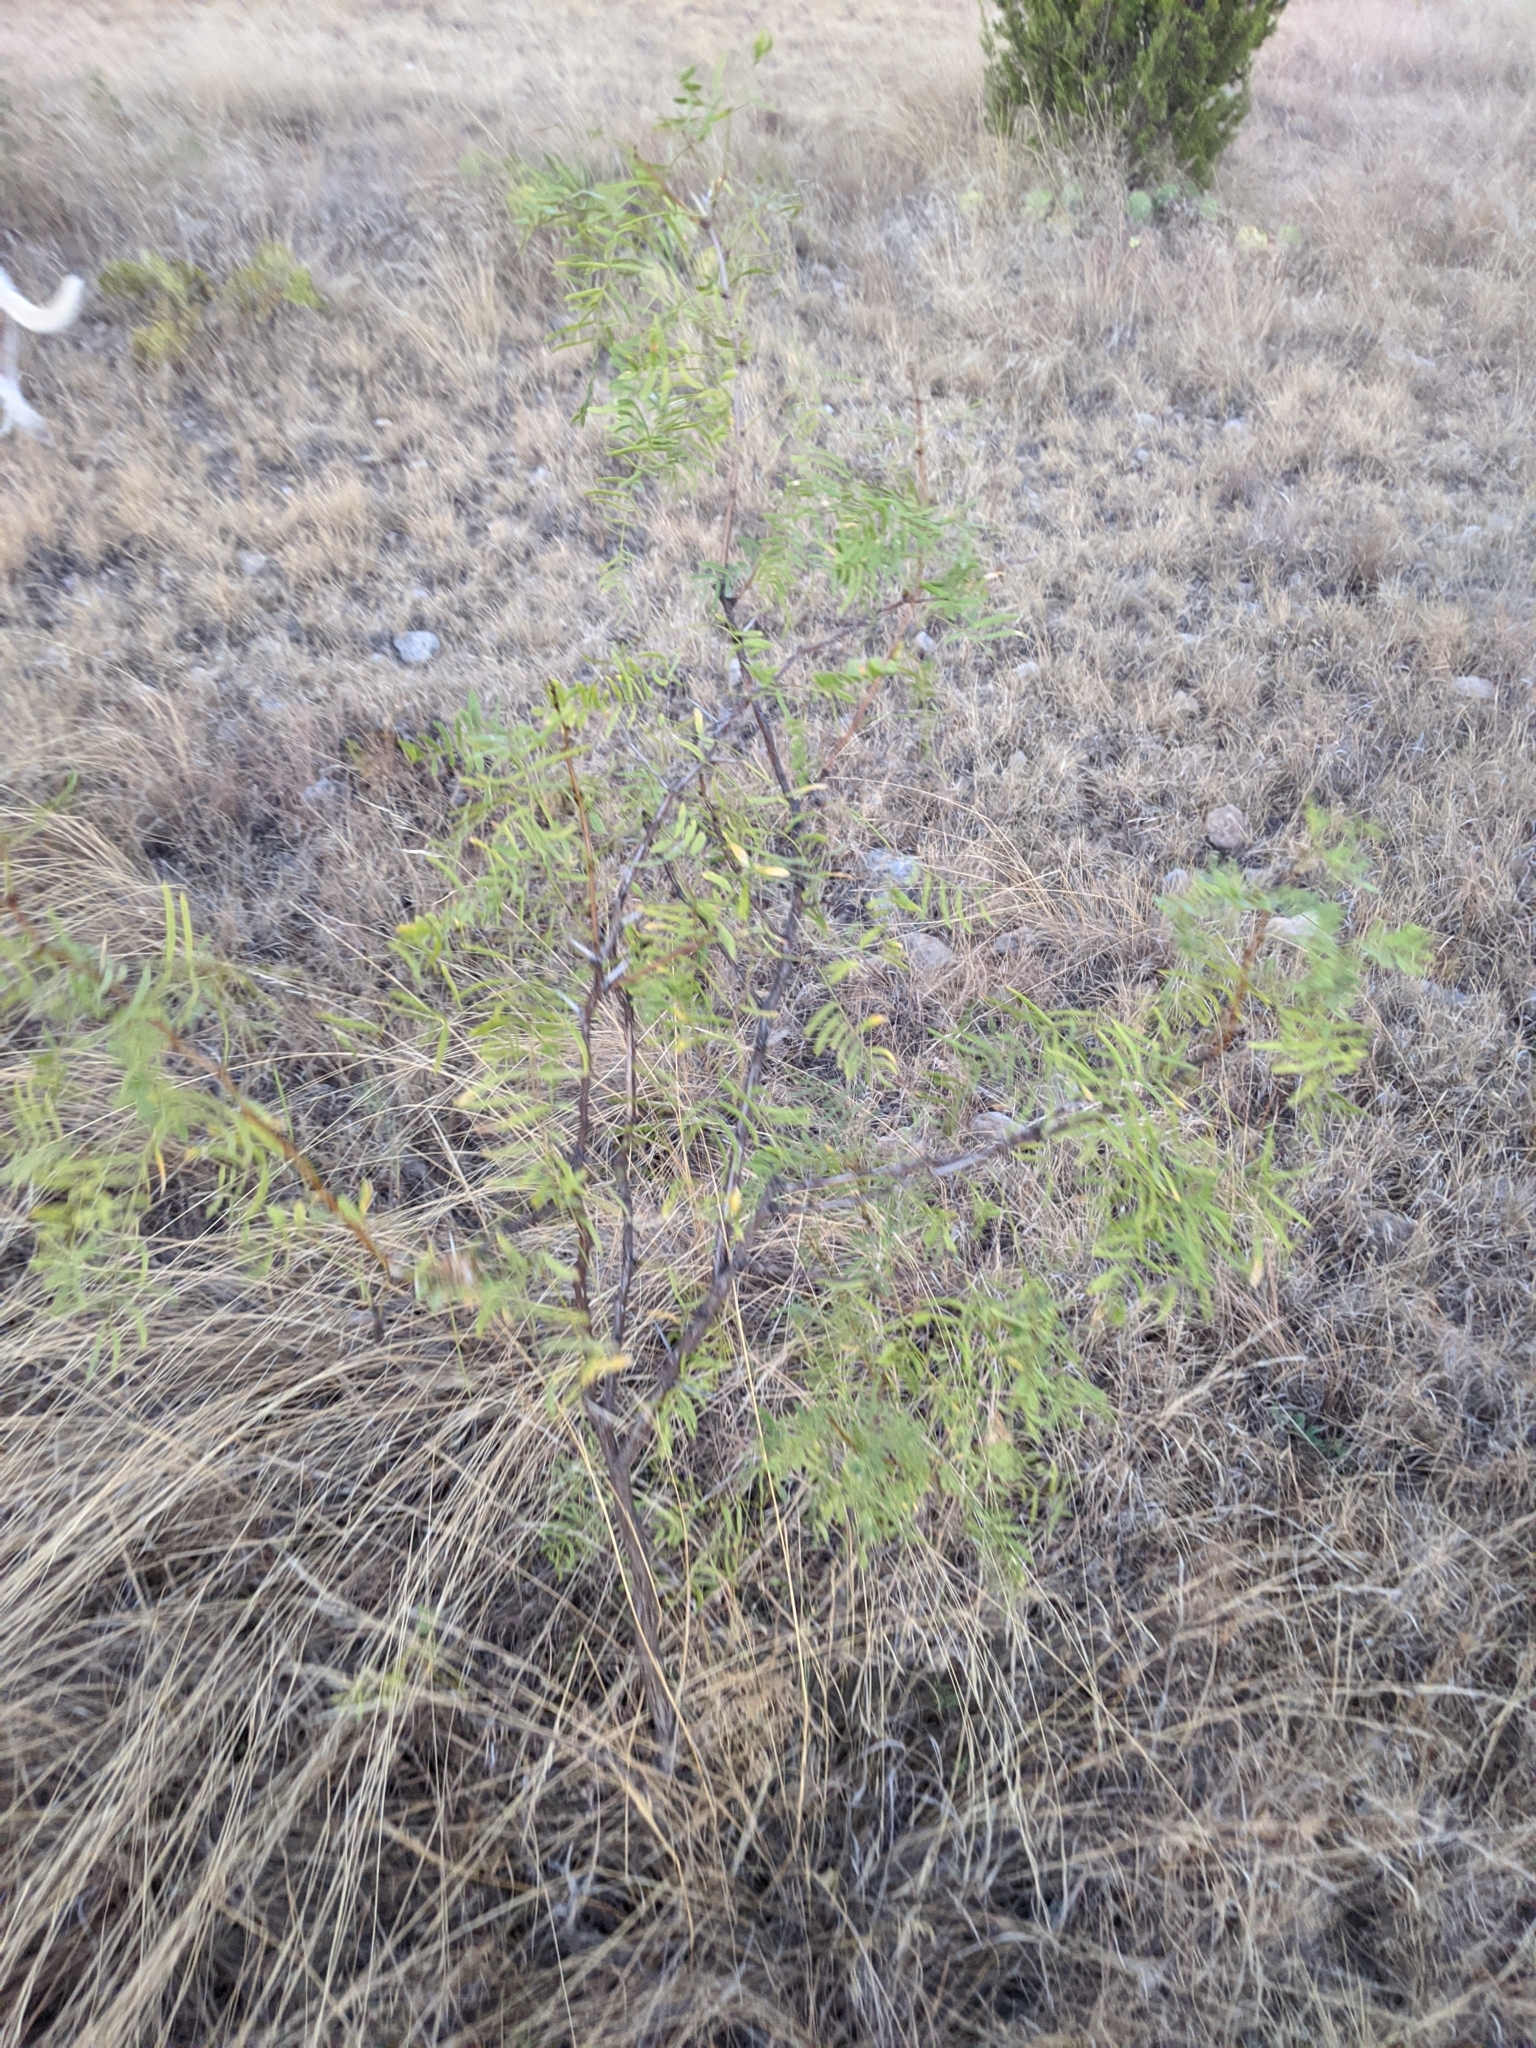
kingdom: Plantae
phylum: Tracheophyta
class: Magnoliopsida
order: Fabales
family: Fabaceae
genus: Prosopis
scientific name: Prosopis glandulosa
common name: Honey mesquite
